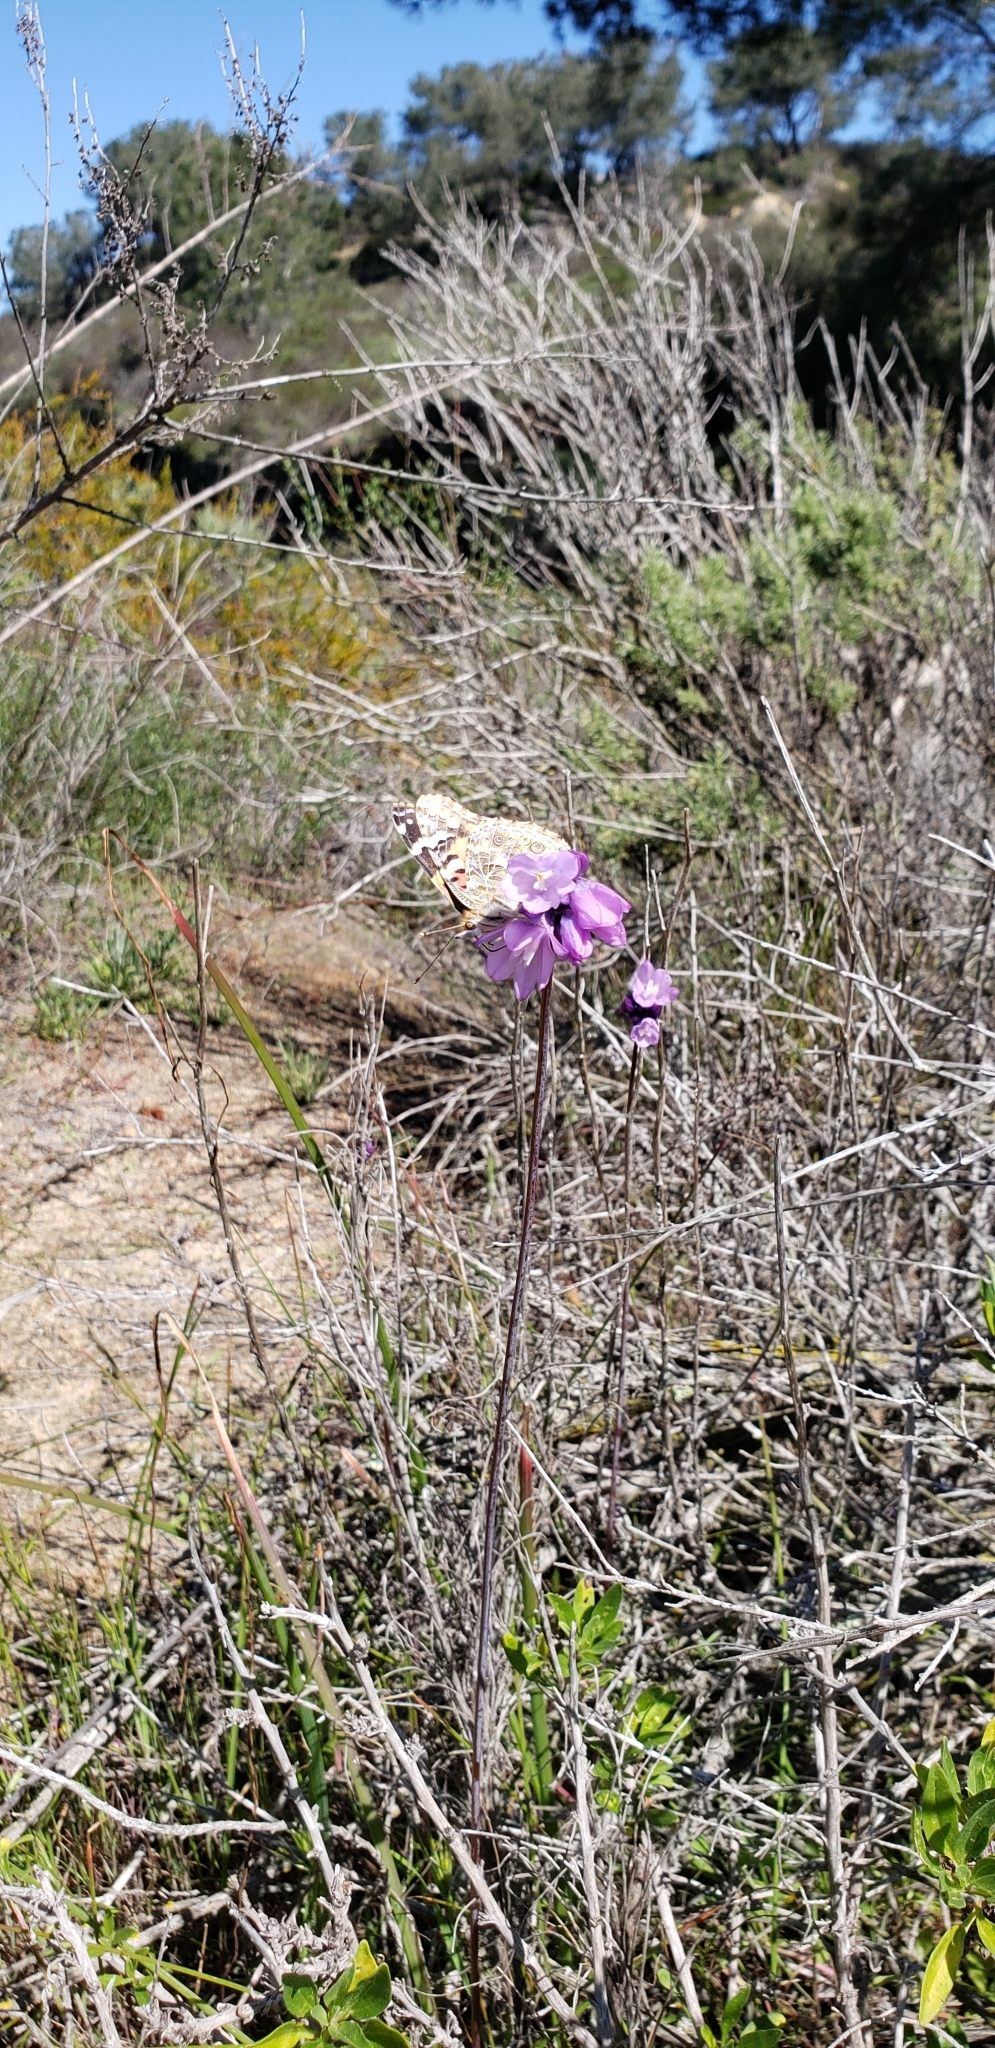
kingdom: Plantae
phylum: Tracheophyta
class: Liliopsida
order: Asparagales
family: Asparagaceae
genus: Dipterostemon
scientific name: Dipterostemon capitatus
